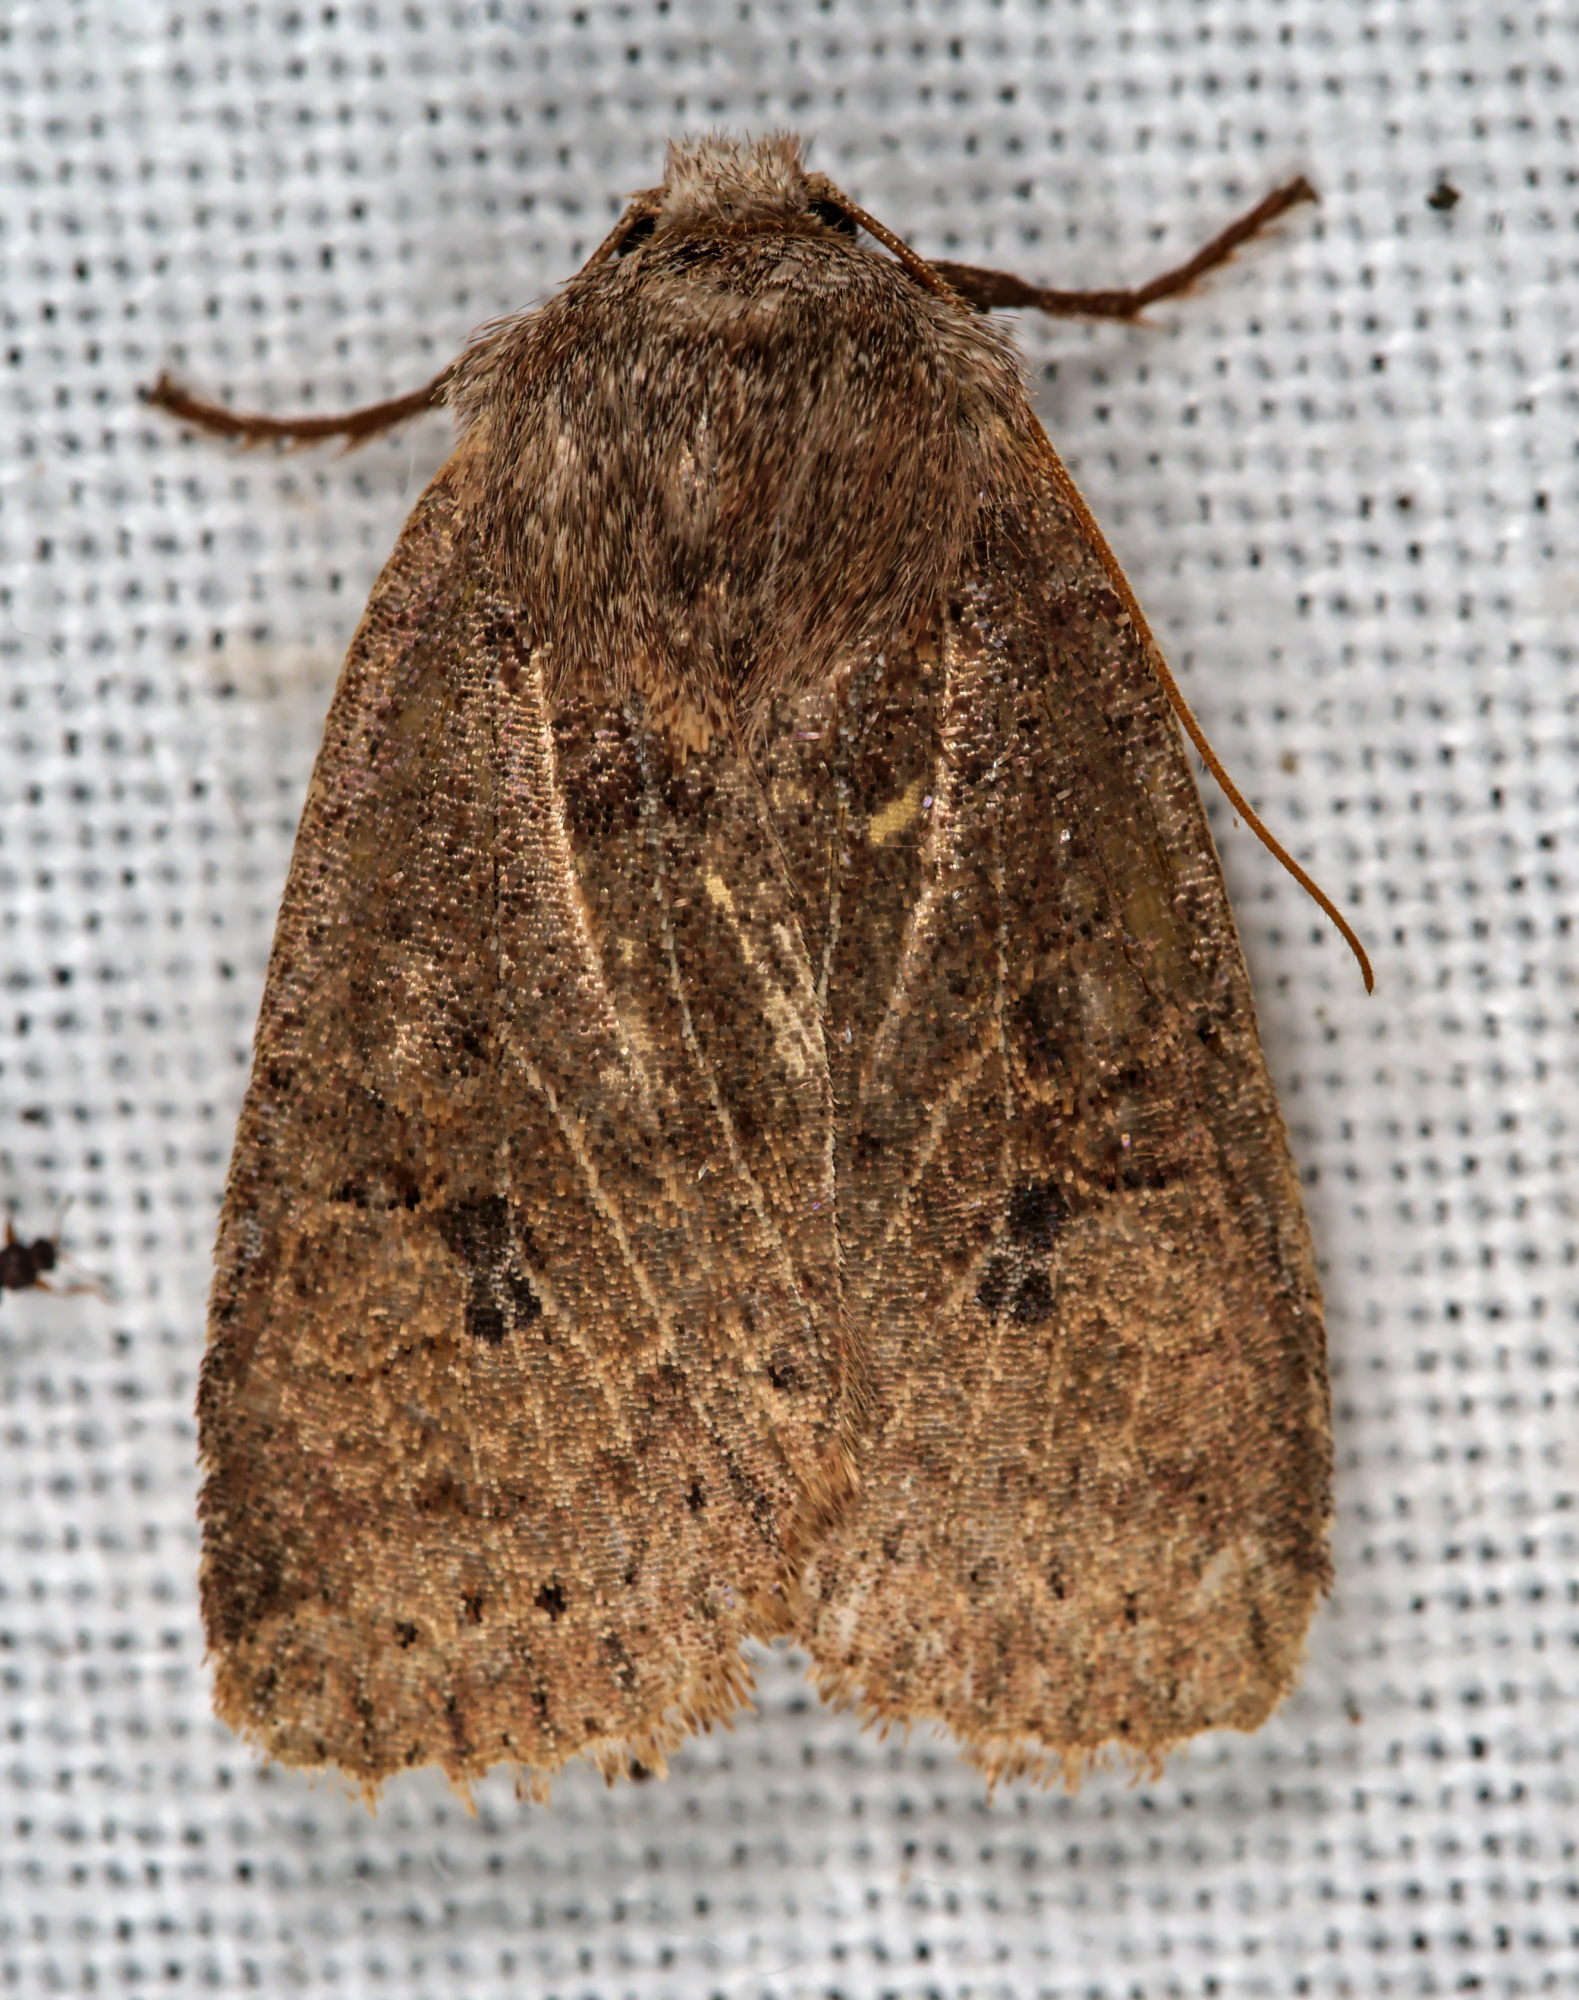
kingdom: Animalia
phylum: Arthropoda
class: Insecta
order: Lepidoptera
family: Noctuidae
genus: Conistra
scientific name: Conistra vaccinii
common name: Chestnut
